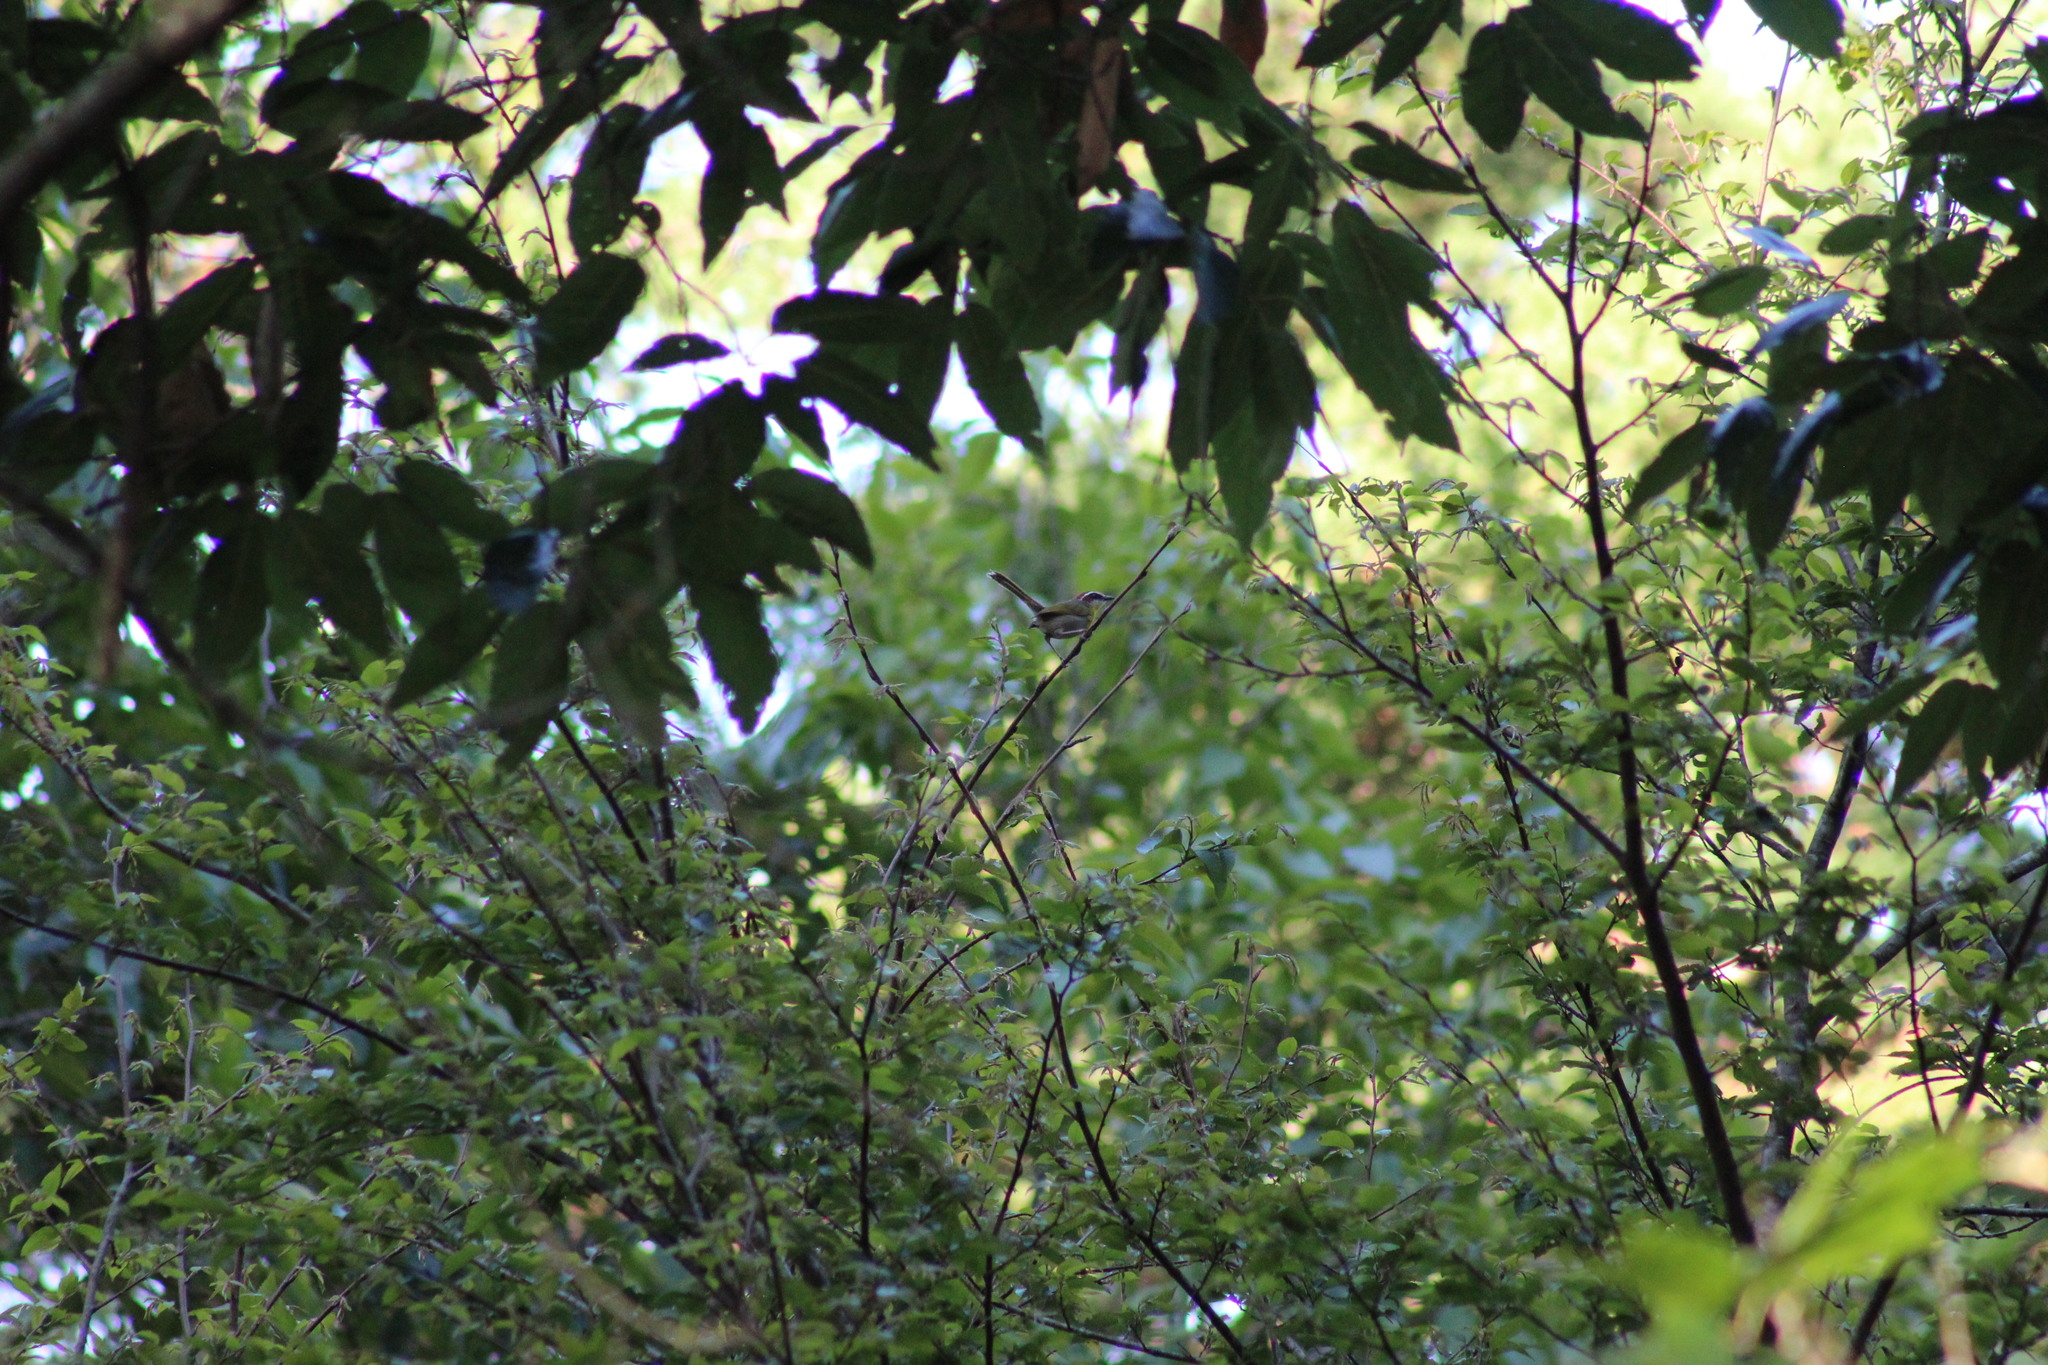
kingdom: Animalia
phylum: Chordata
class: Aves
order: Passeriformes
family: Parulidae
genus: Basileuterus
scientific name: Basileuterus rufifrons
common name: Rufous-capped warbler
